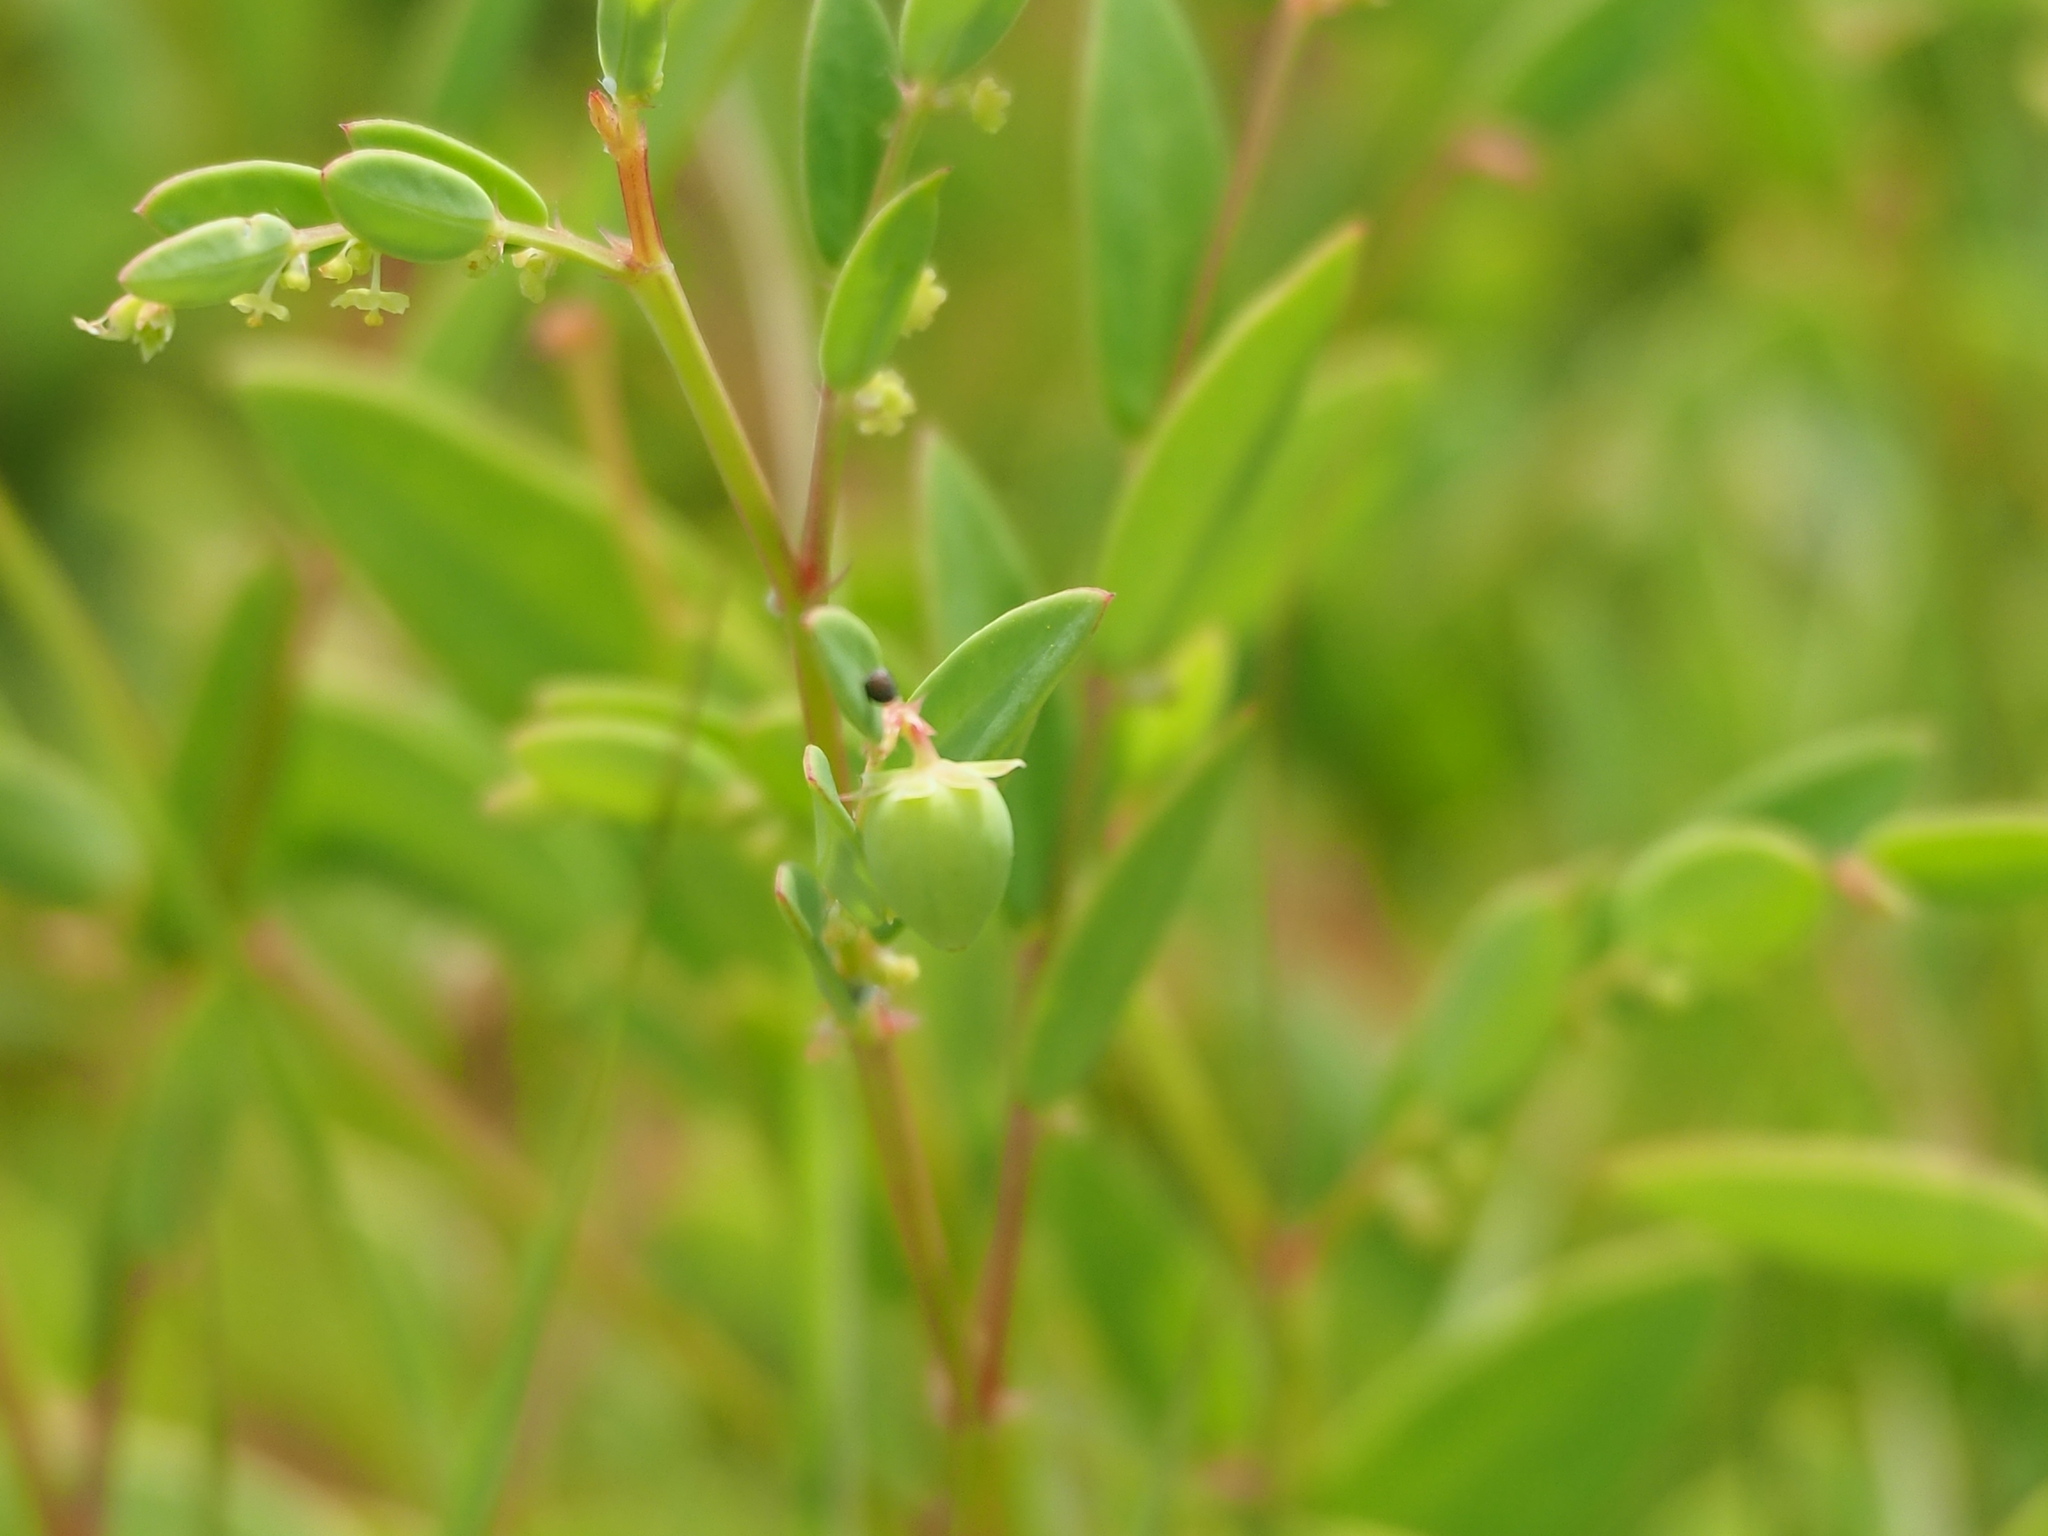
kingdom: Plantae
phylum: Tracheophyta
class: Magnoliopsida
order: Malpighiales
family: Phyllanthaceae
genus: Synostemon
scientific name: Synostemon bacciformis
